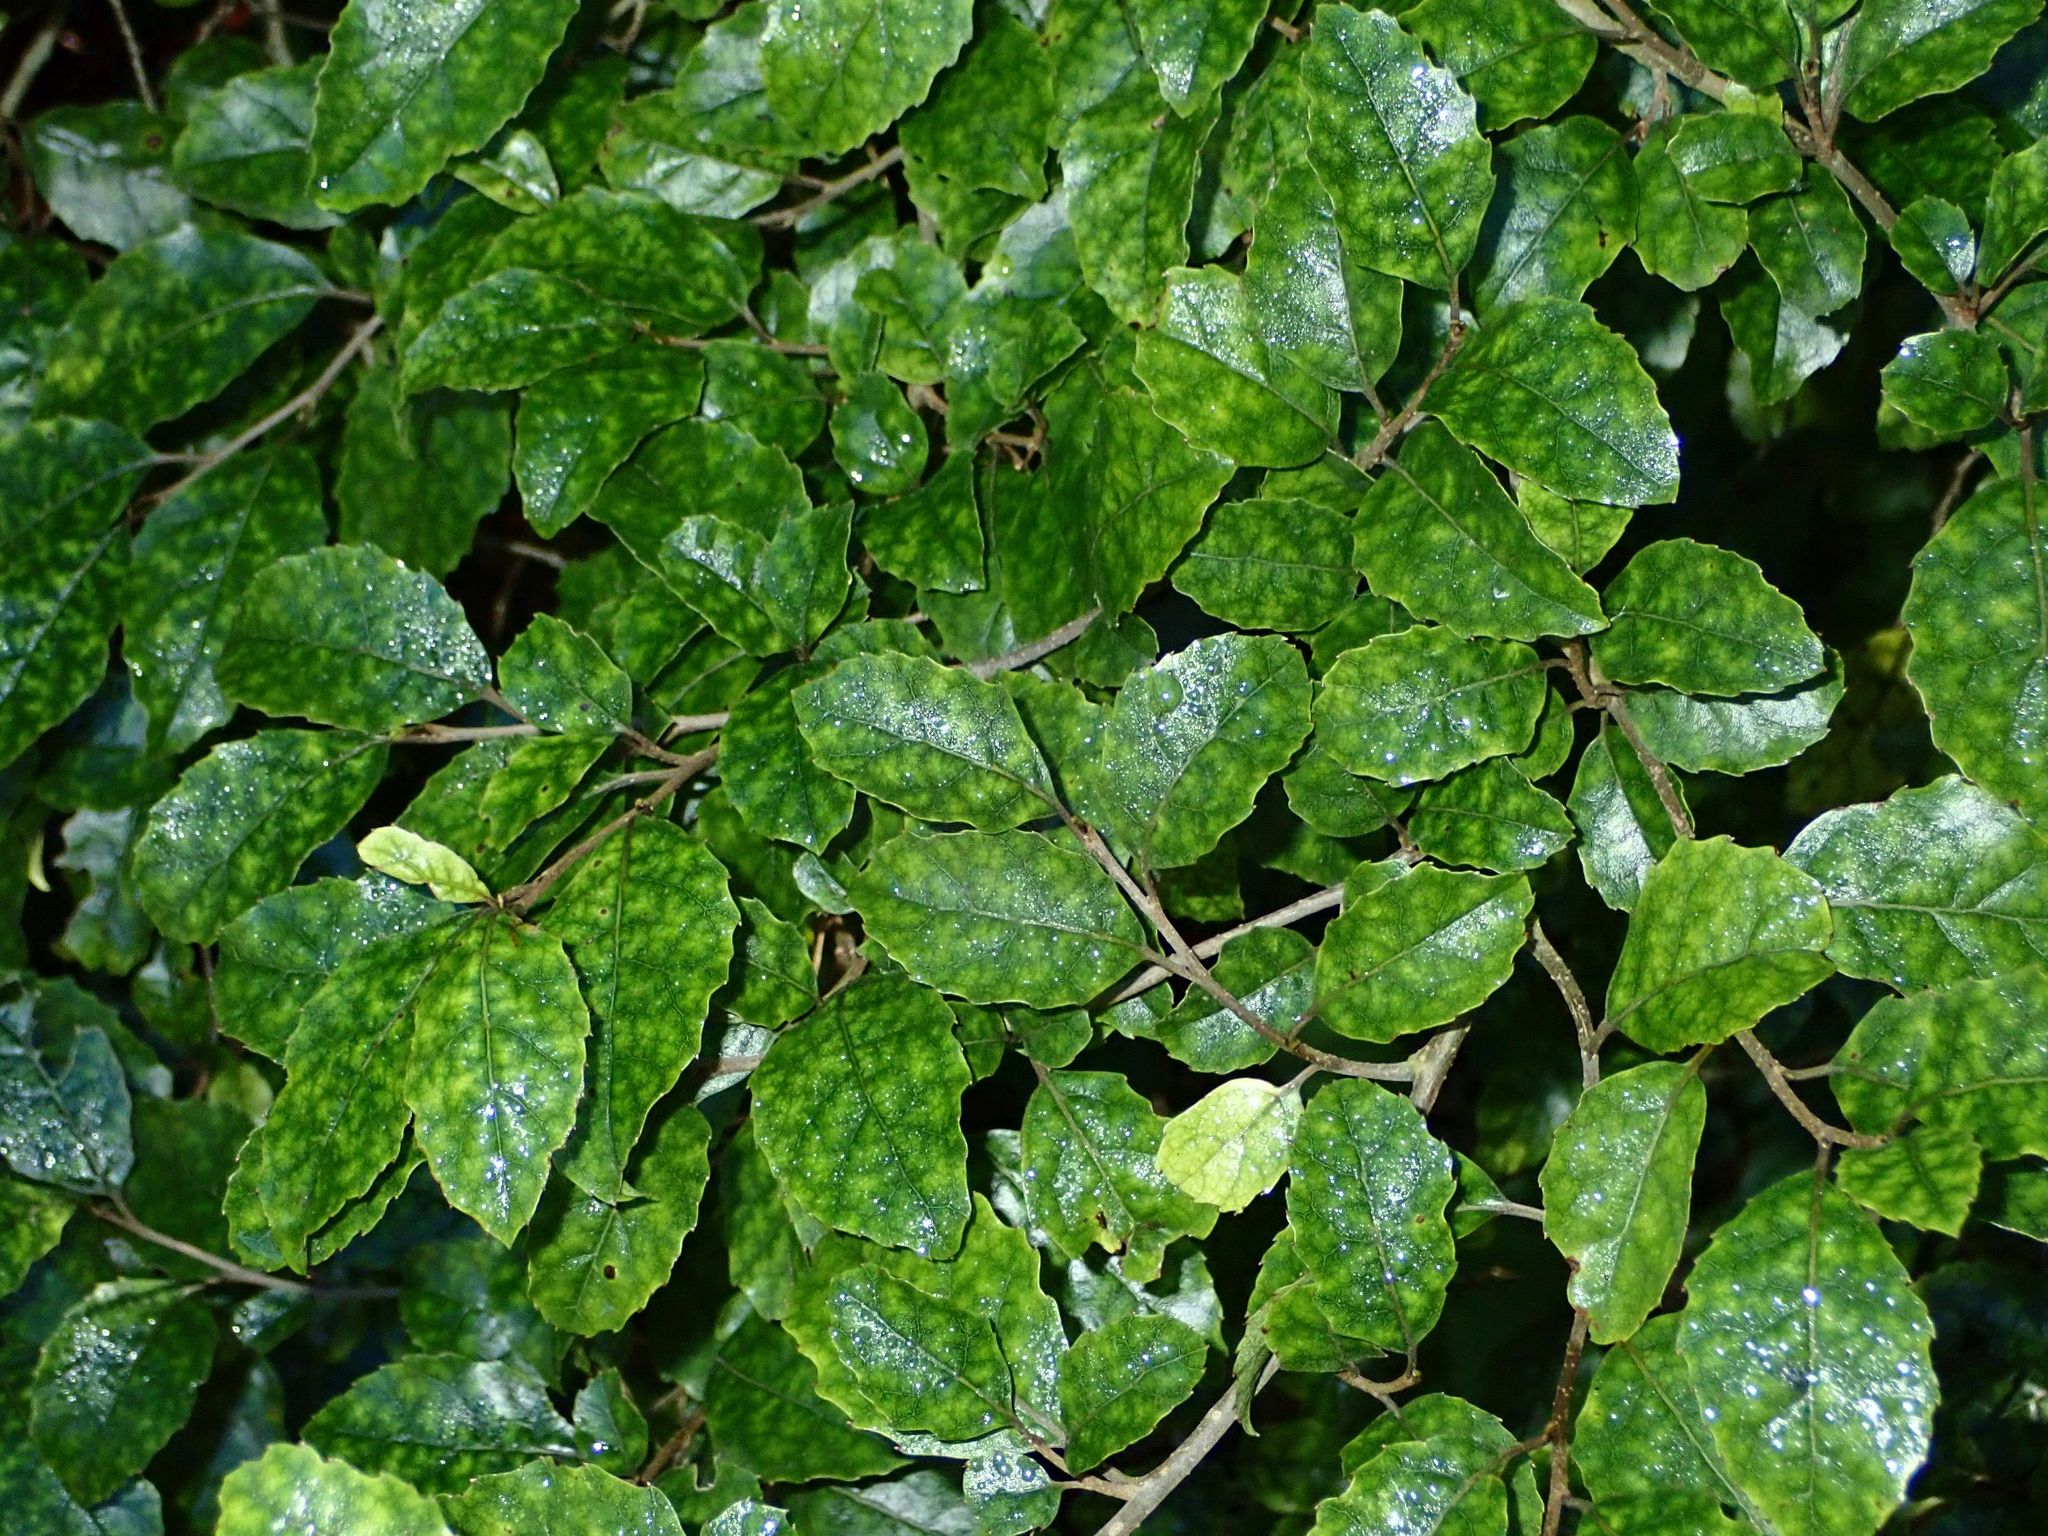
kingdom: Plantae
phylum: Tracheophyta
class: Magnoliopsida
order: Asterales
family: Rousseaceae
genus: Carpodetus
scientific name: Carpodetus serratus
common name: White mapau
